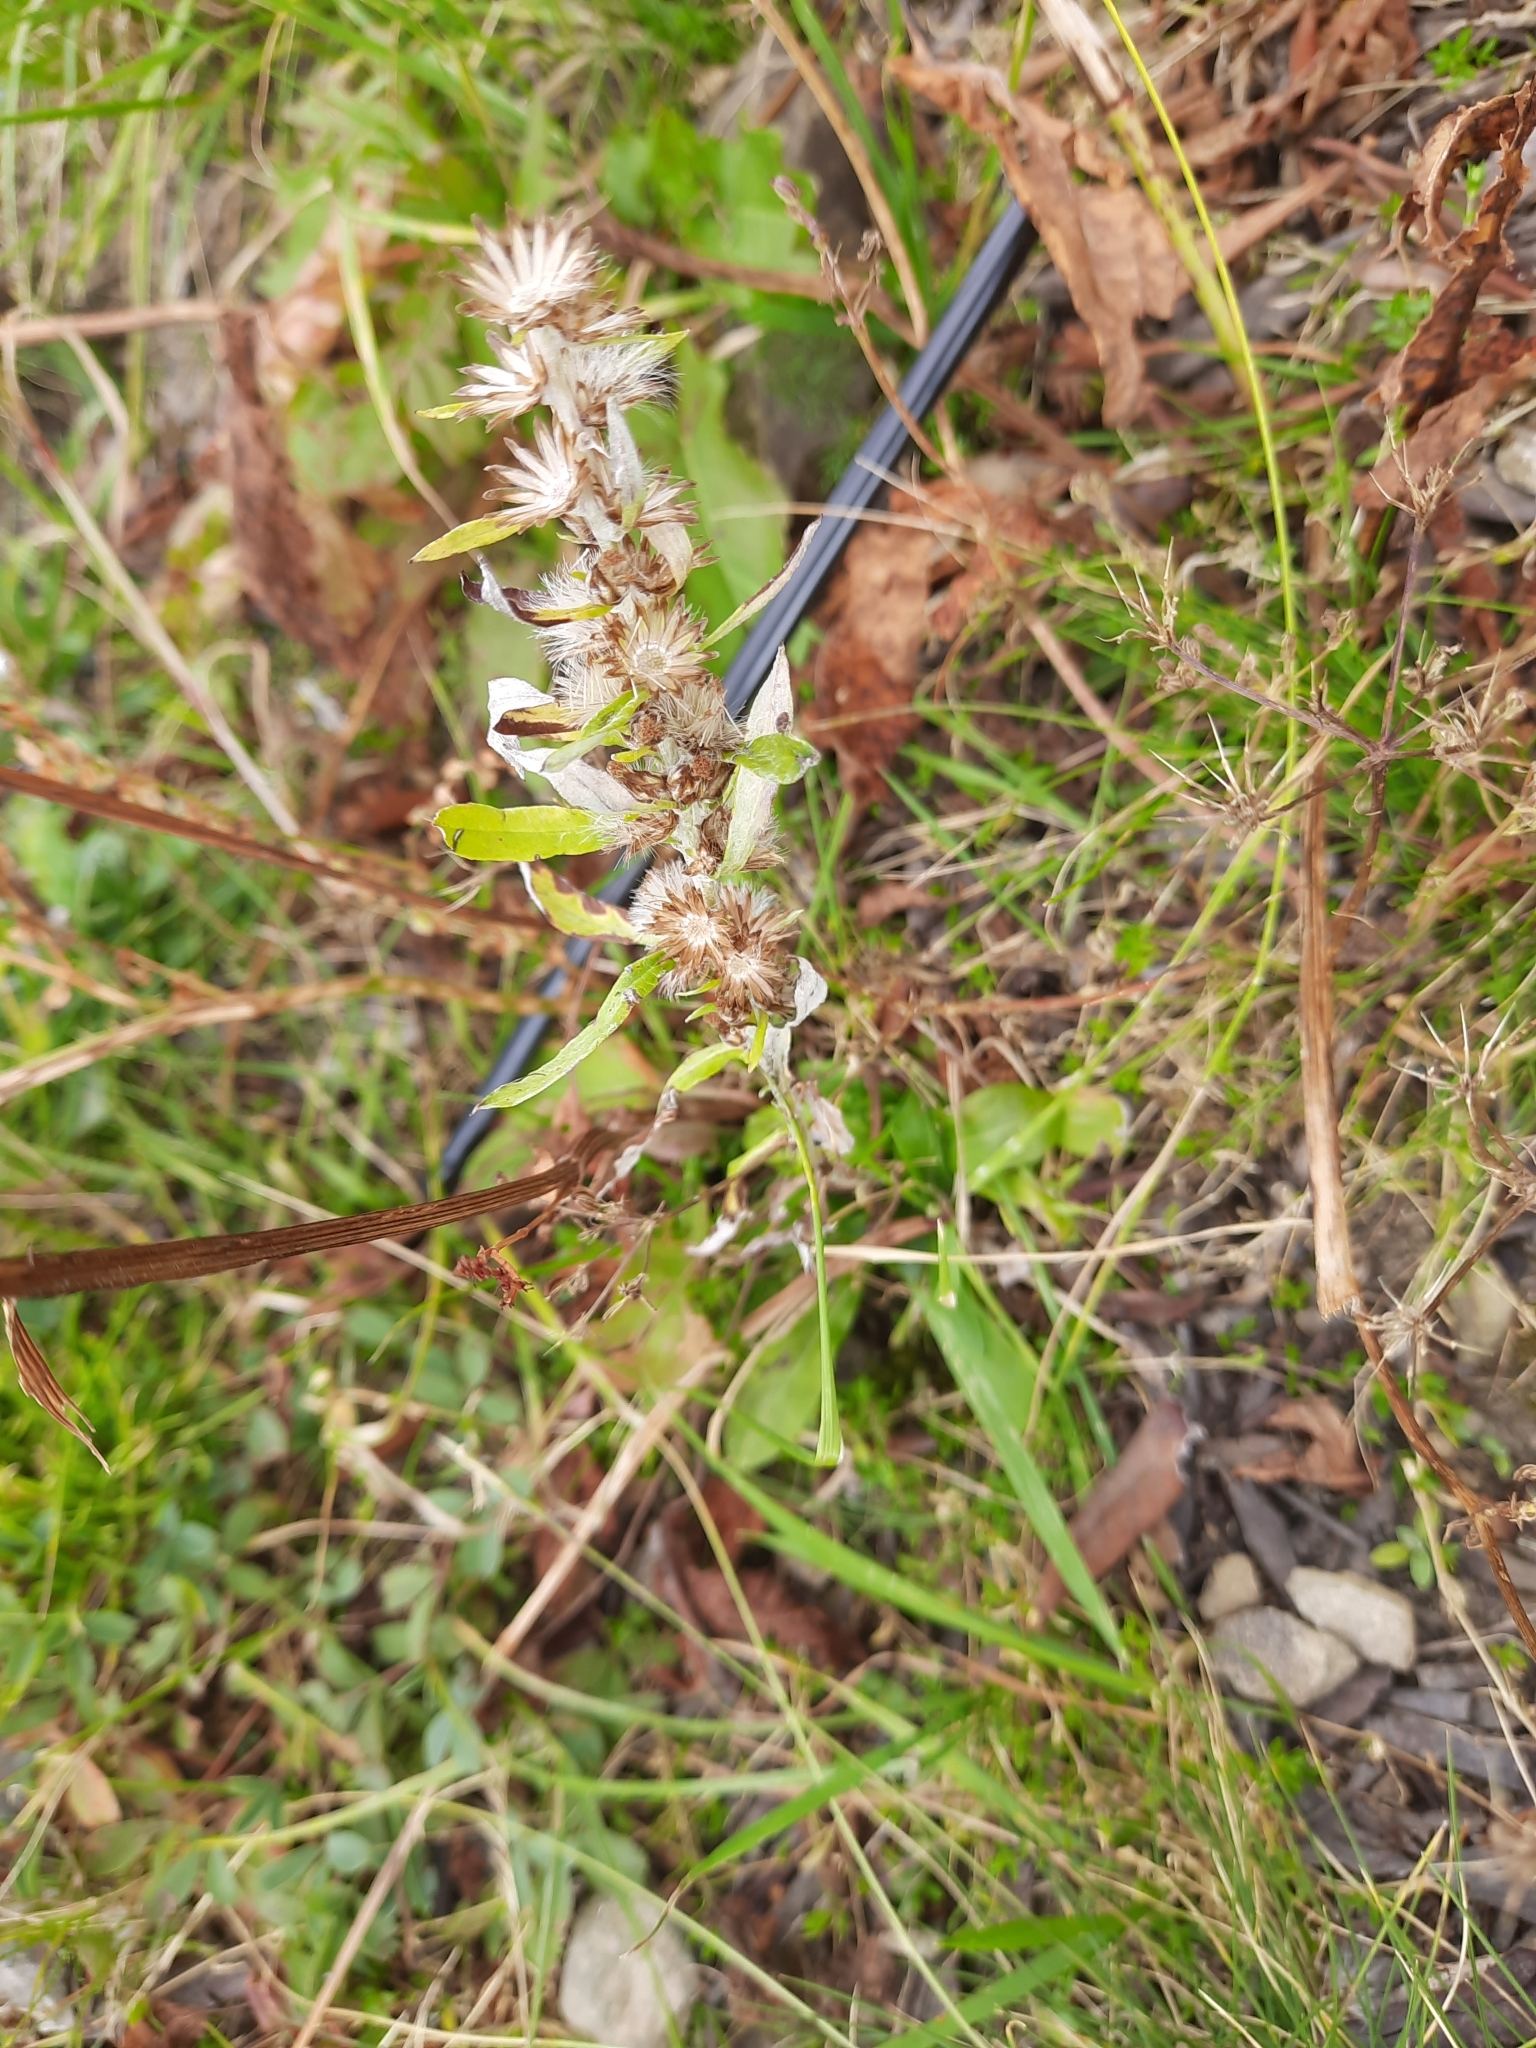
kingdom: Plantae
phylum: Tracheophyta
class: Magnoliopsida
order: Asterales
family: Asteraceae
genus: Omalotheca
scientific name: Omalotheca sylvatica
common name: Heath cudweed
